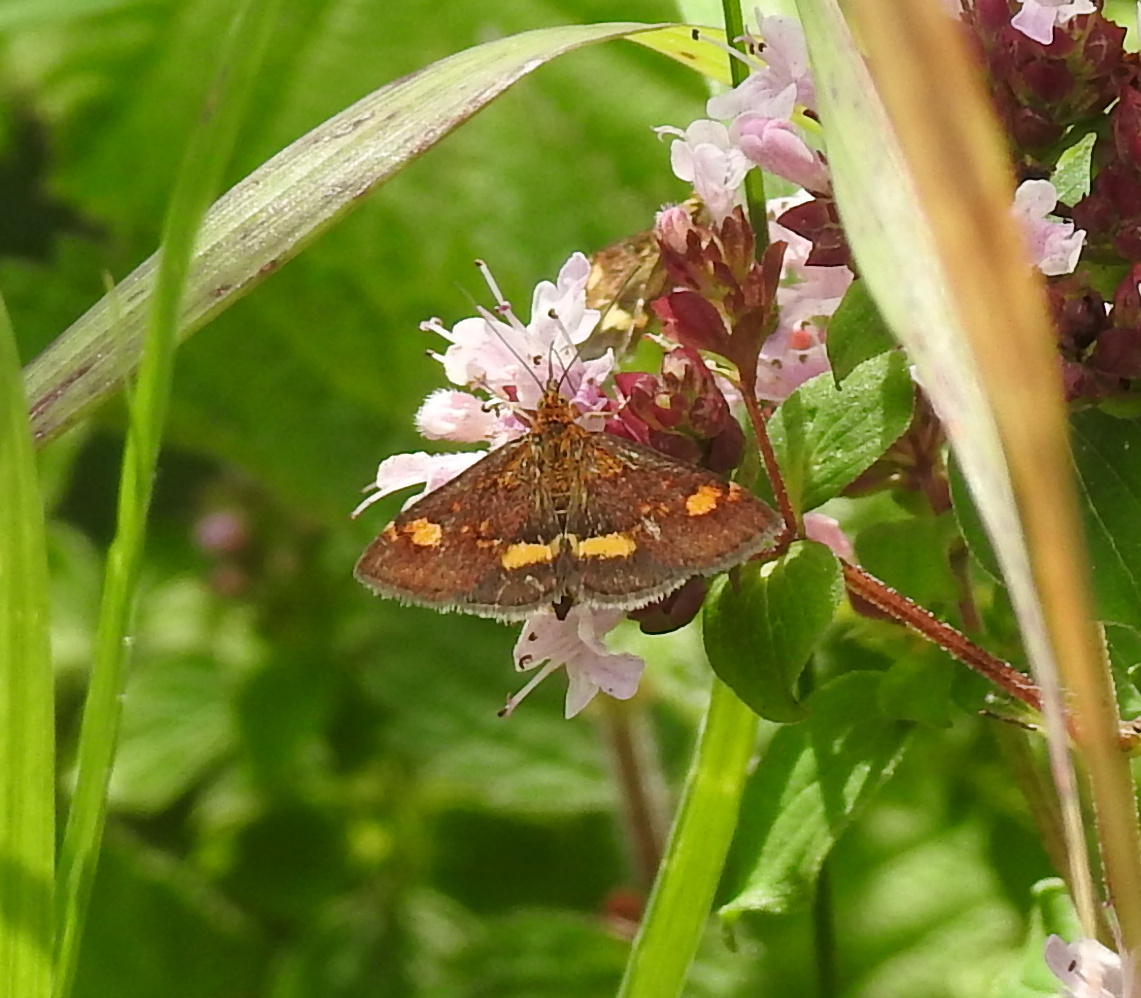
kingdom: Animalia
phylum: Arthropoda
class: Insecta
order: Lepidoptera
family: Crambidae
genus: Pyrausta
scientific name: Pyrausta aurata
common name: Small purple & gold
